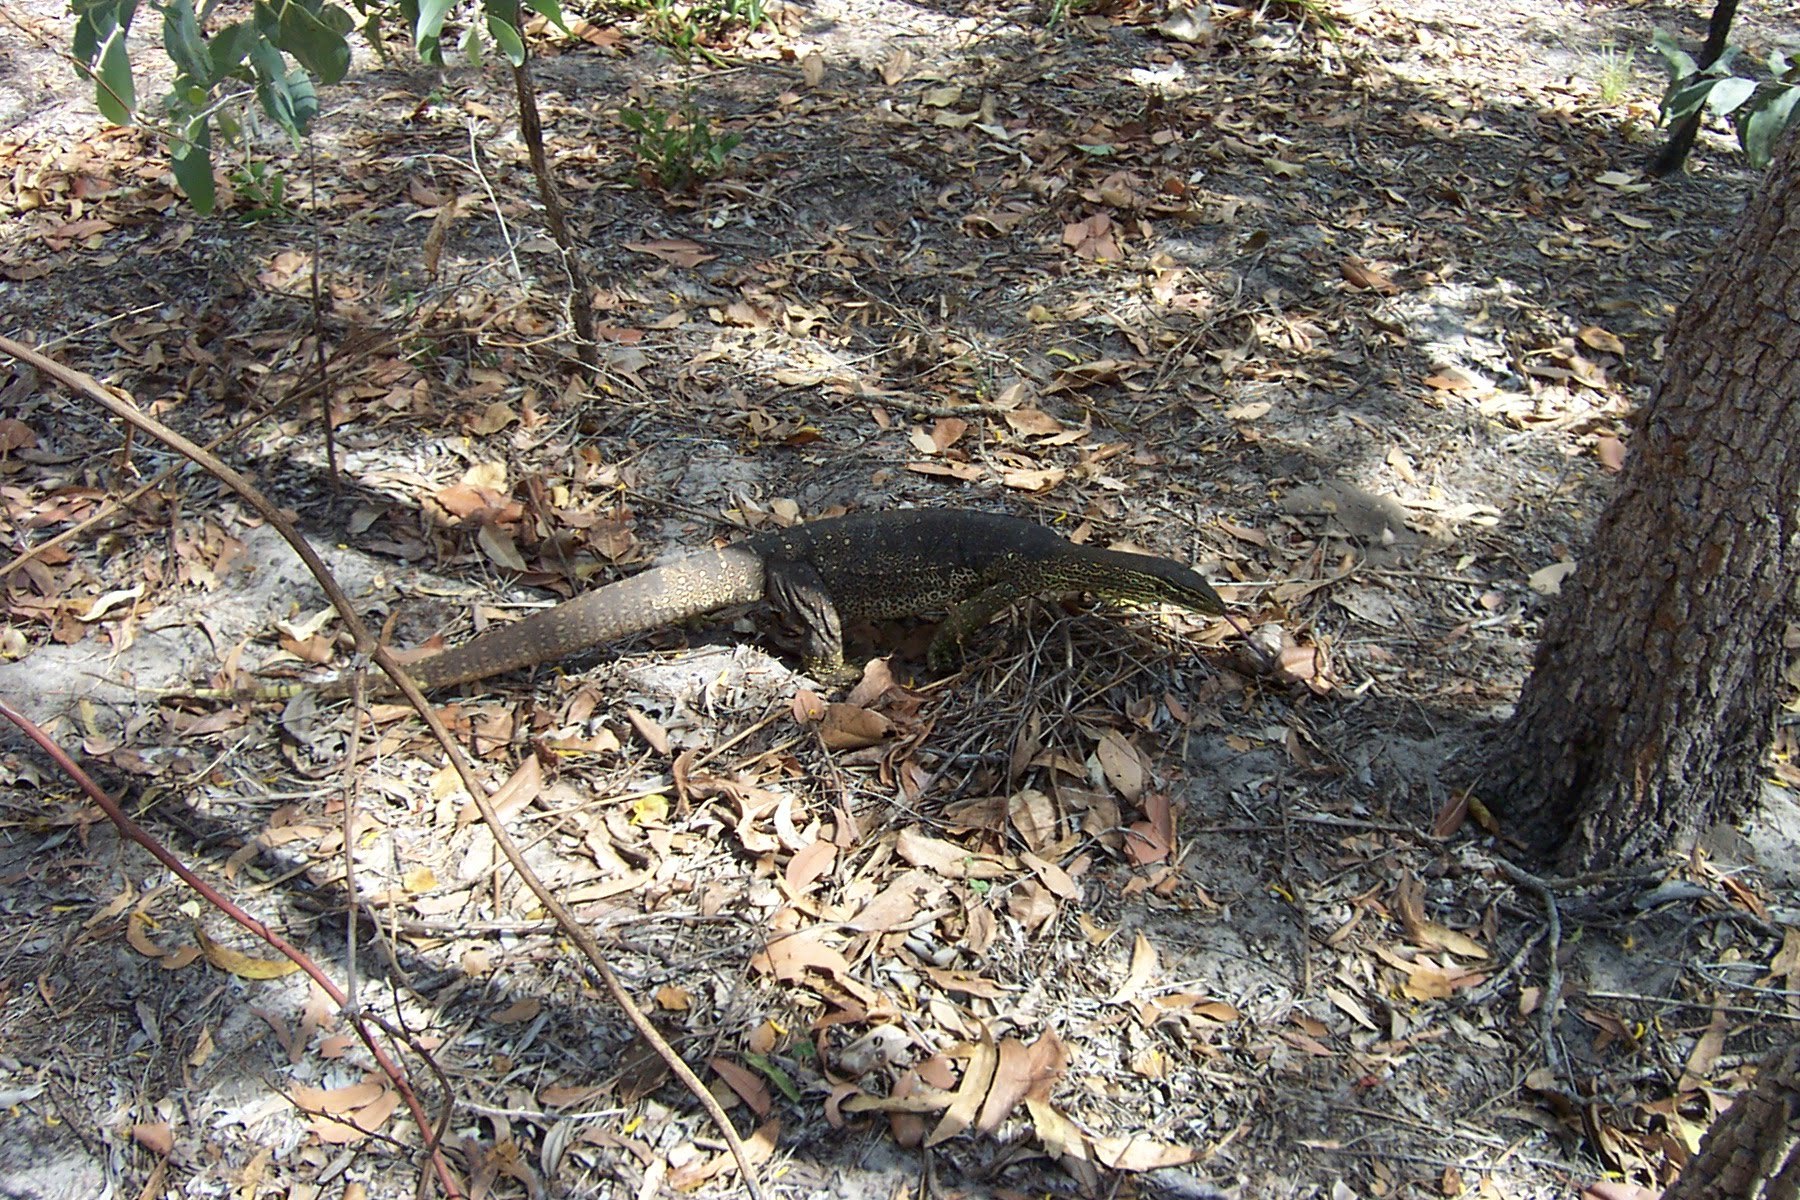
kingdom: Animalia
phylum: Chordata
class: Squamata
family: Varanidae
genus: Varanus
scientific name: Varanus panoptes
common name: Yellow-spotted monitor
